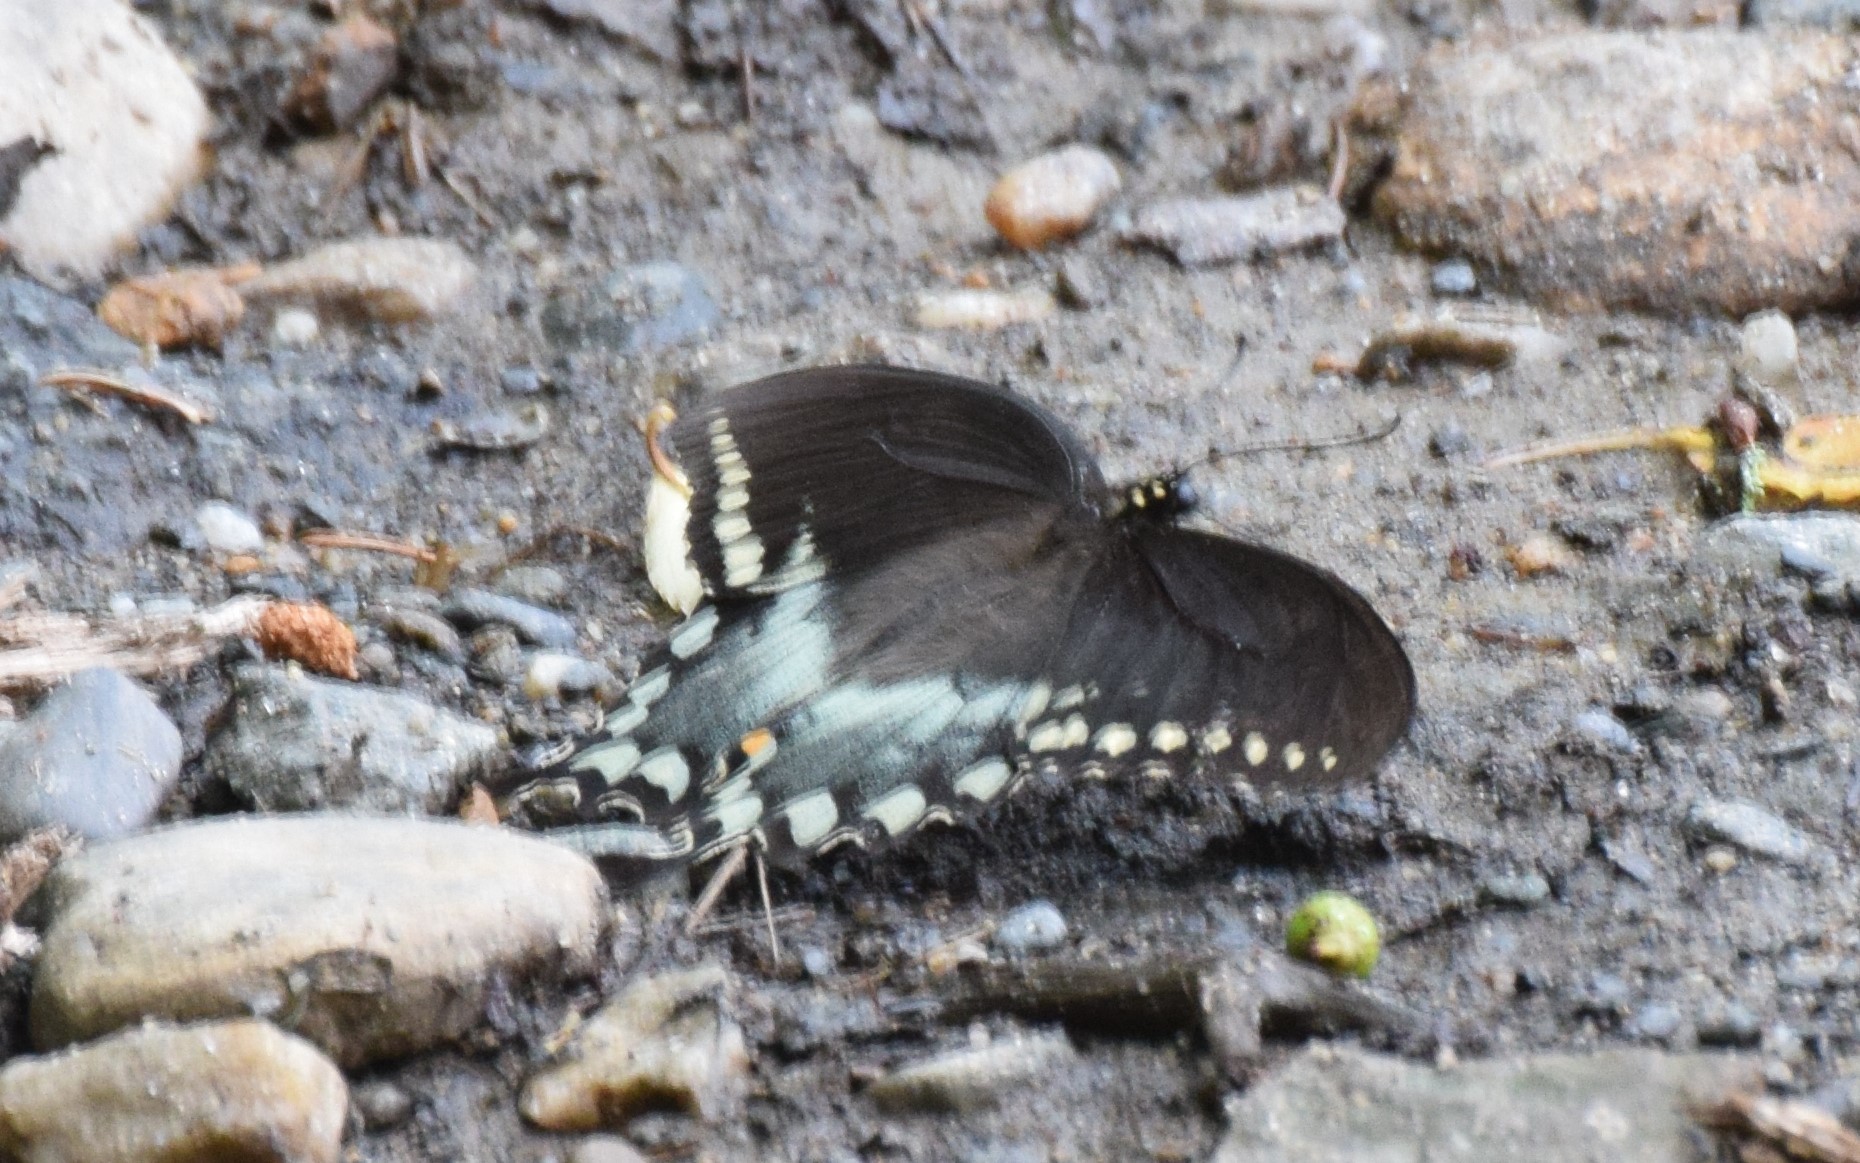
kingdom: Animalia
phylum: Arthropoda
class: Insecta
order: Lepidoptera
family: Papilionidae
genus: Papilio
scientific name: Papilio troilus
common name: Spicebush swallowtail
